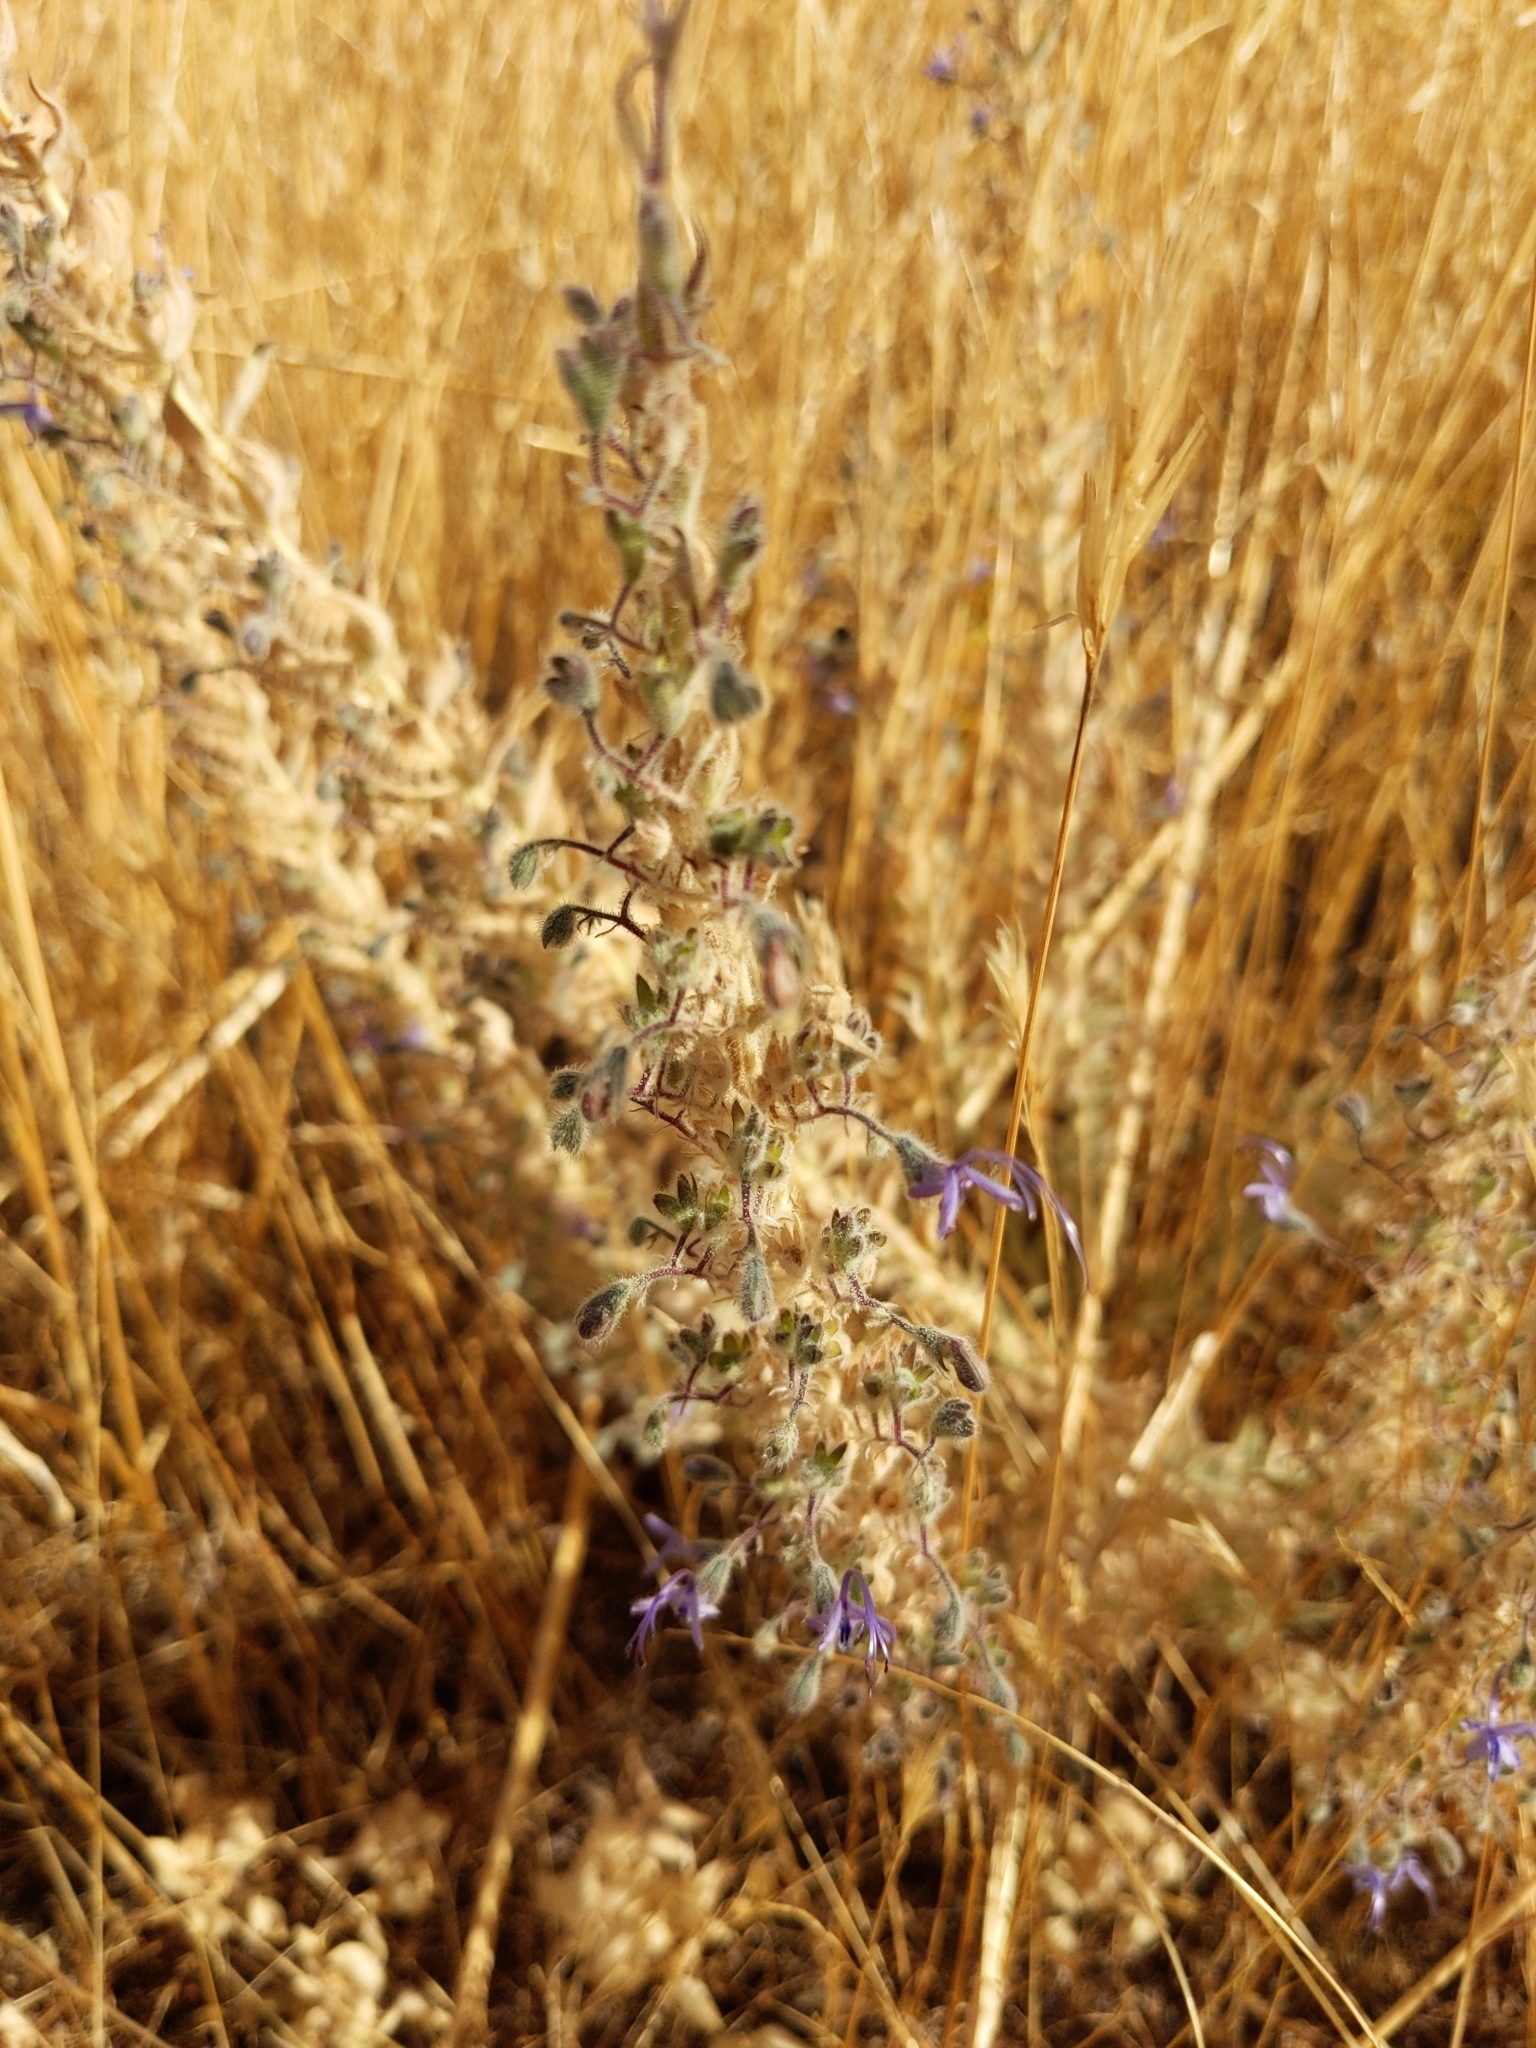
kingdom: Plantae
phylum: Tracheophyta
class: Magnoliopsida
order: Lamiales
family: Lamiaceae
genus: Trichostema
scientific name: Trichostema lanceolatum
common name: Vinegar-weed
